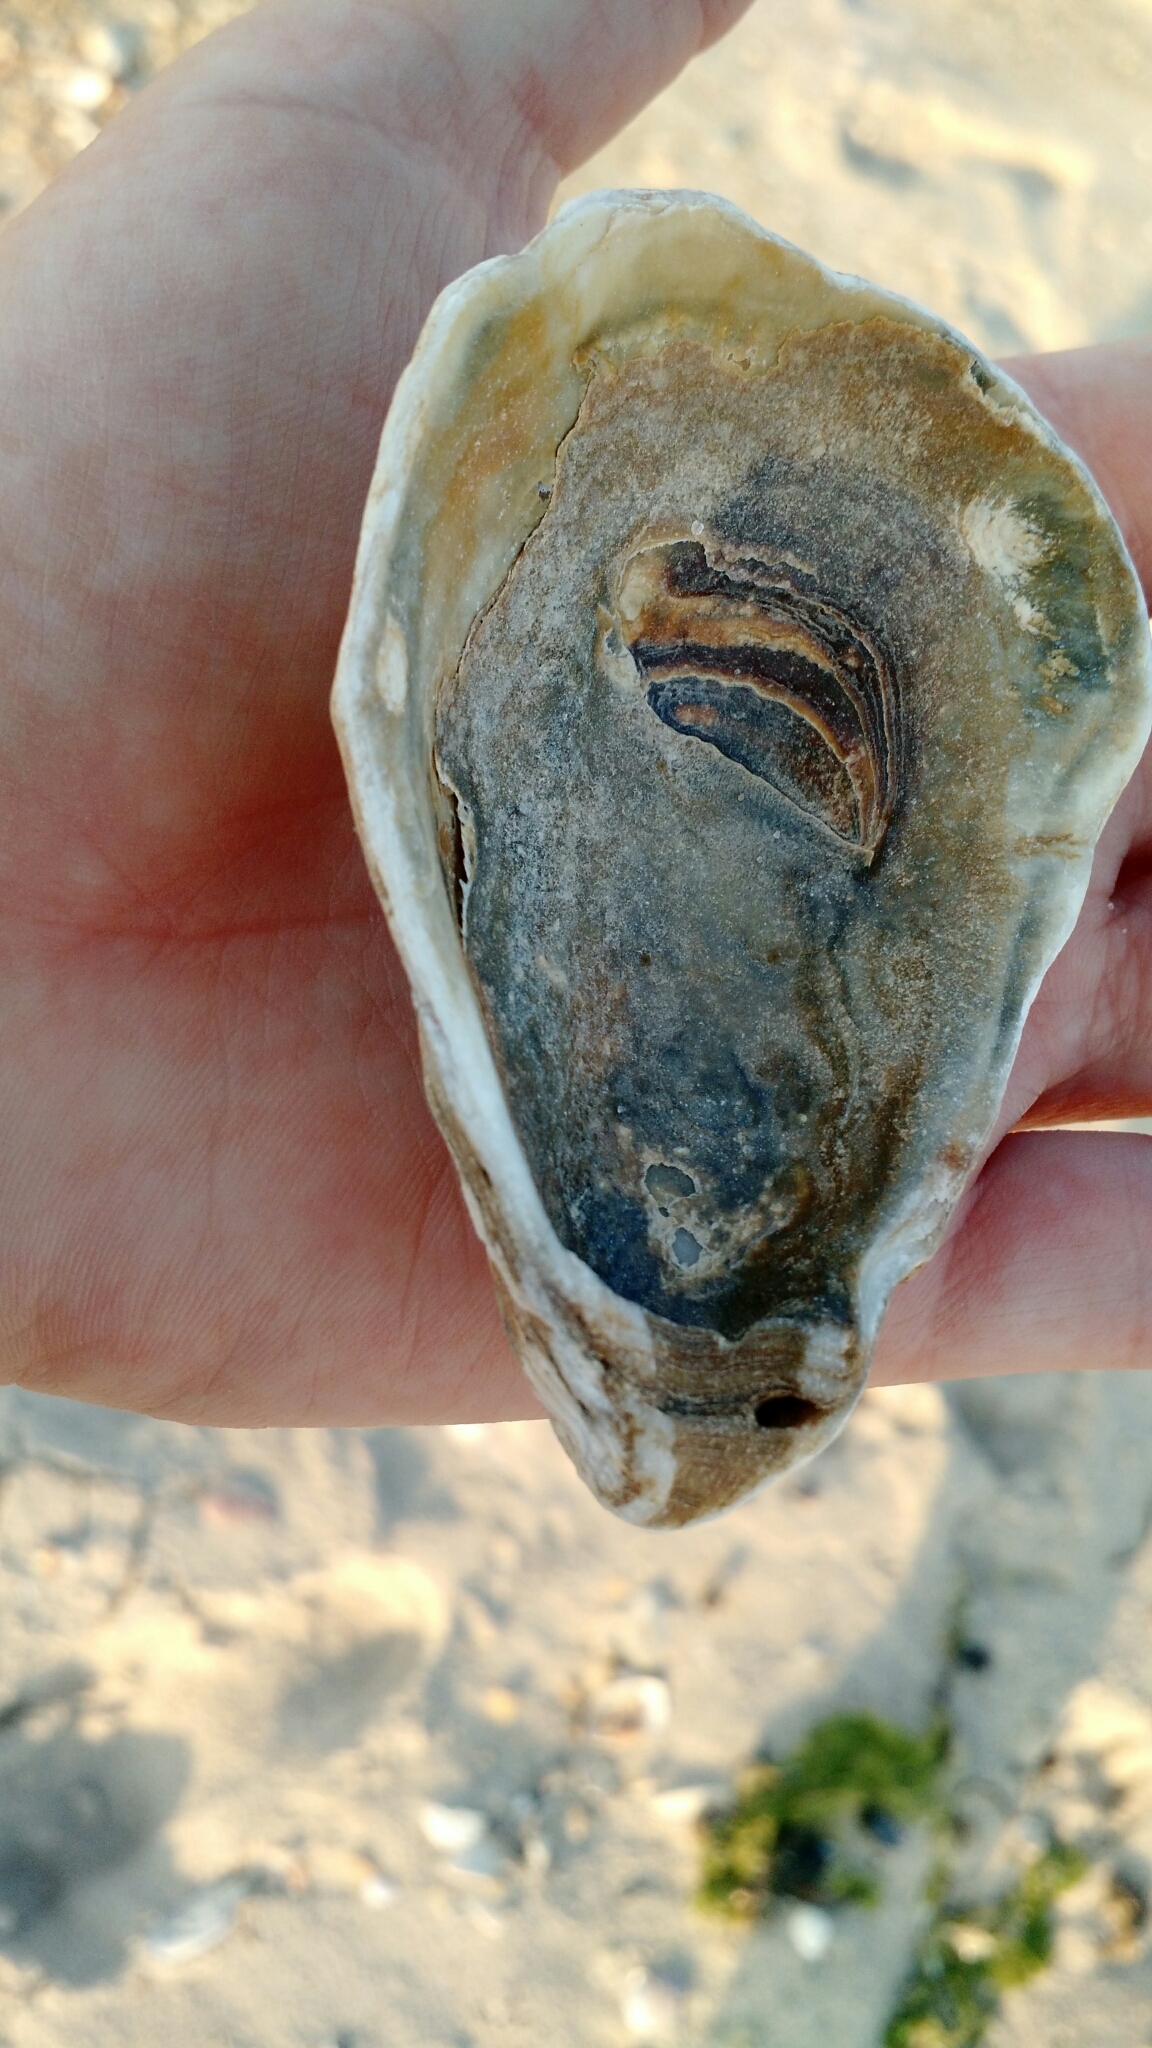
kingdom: Animalia
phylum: Mollusca
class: Bivalvia
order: Ostreida
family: Ostreidae
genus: Crassostrea
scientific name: Crassostrea virginica
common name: American oyster
